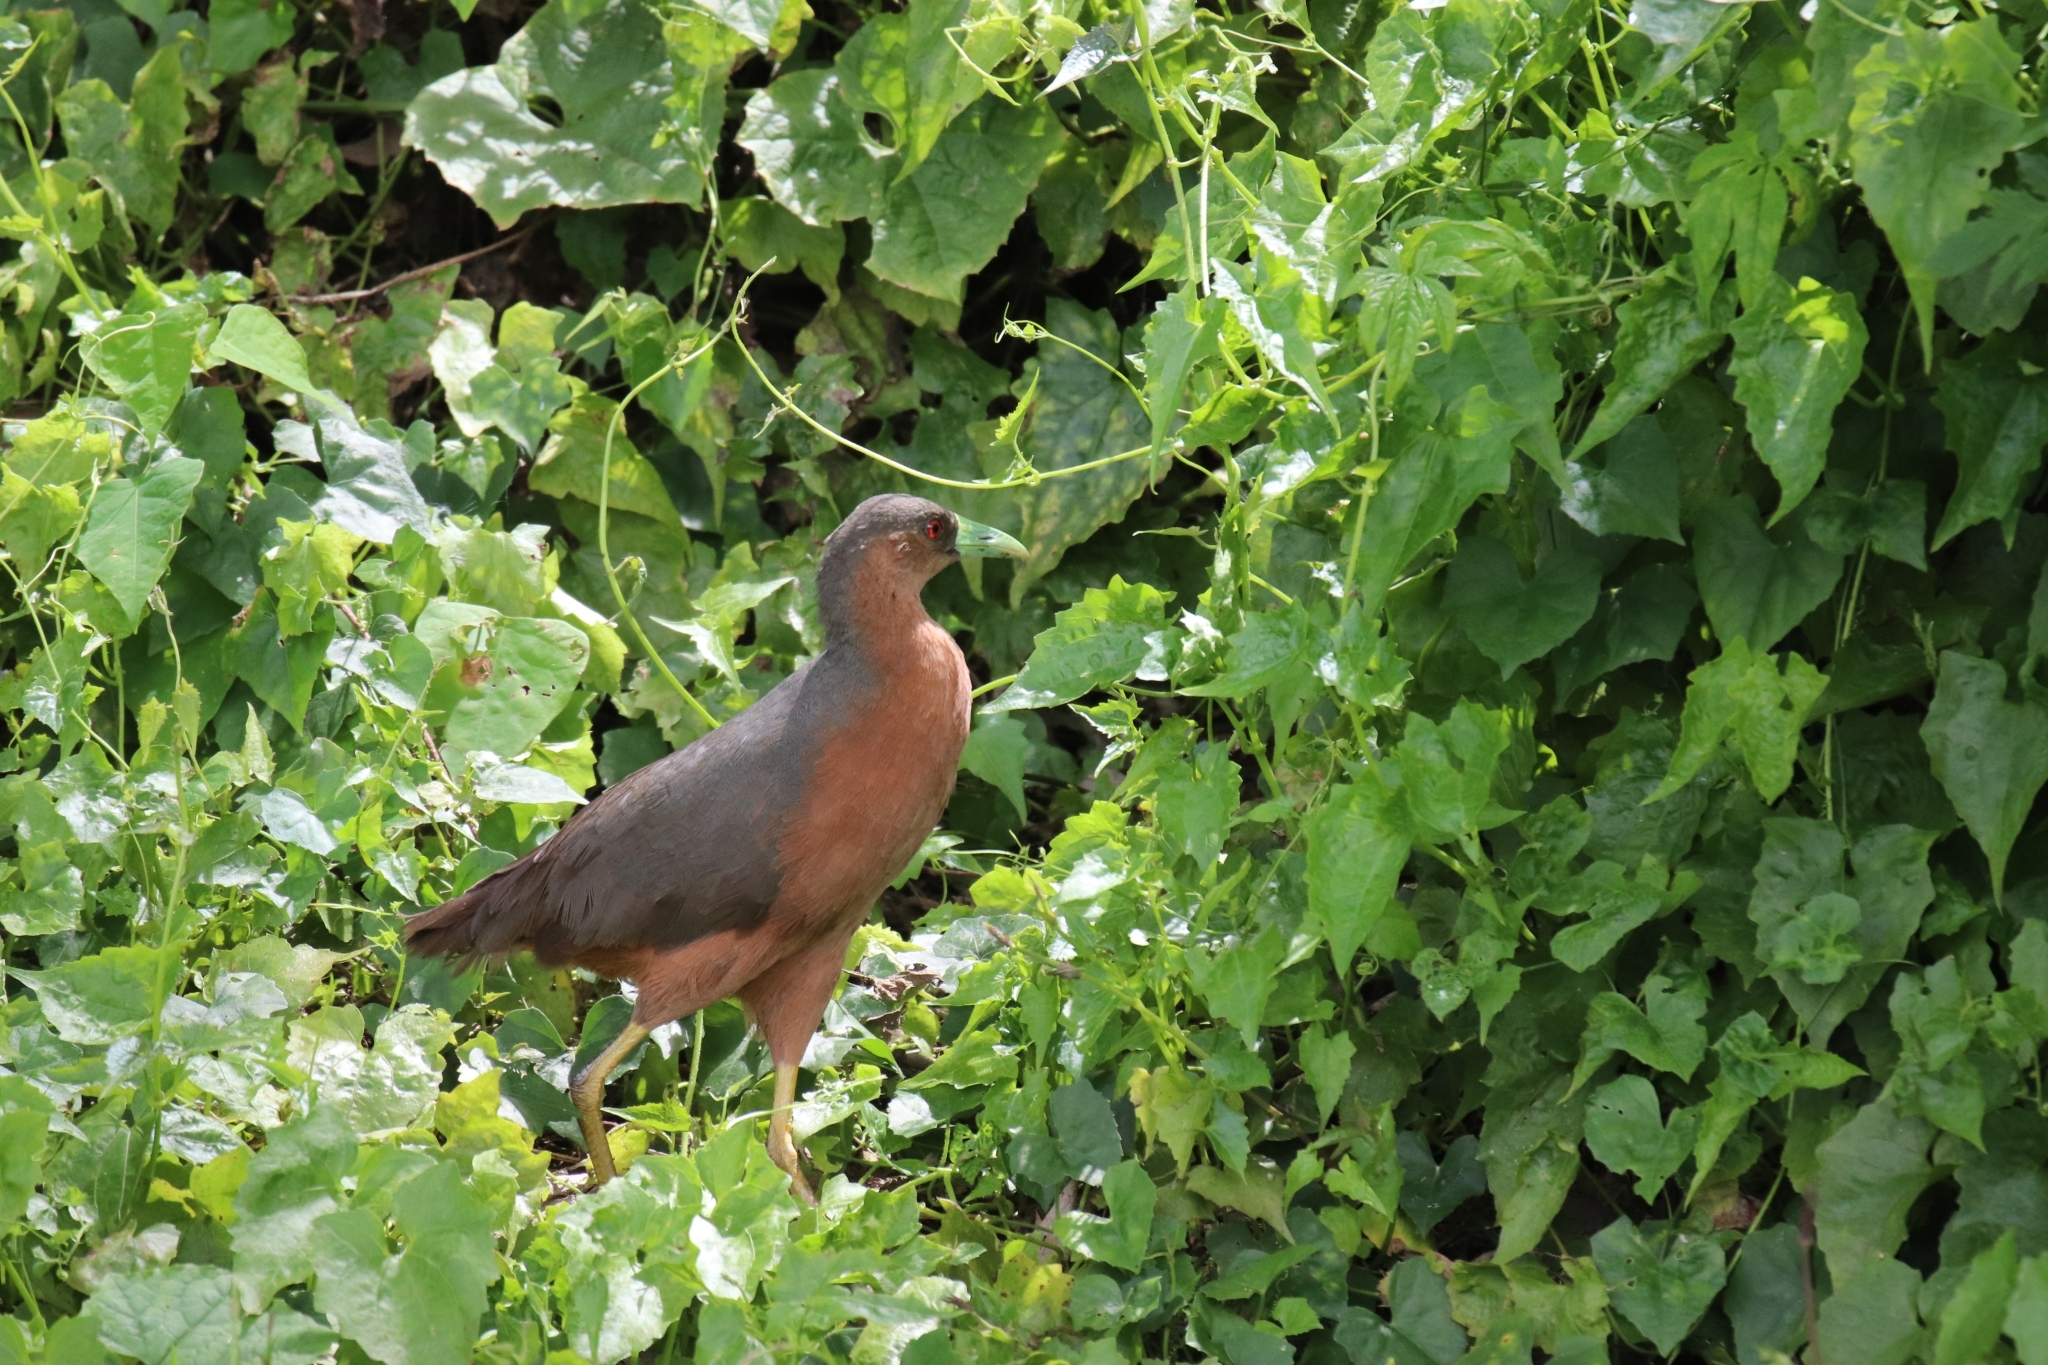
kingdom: Animalia
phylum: Chordata
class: Aves
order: Gruiformes
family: Rallidae
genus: Amaurornis
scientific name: Amaurornis isabellina
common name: Isabelline bush-hen
